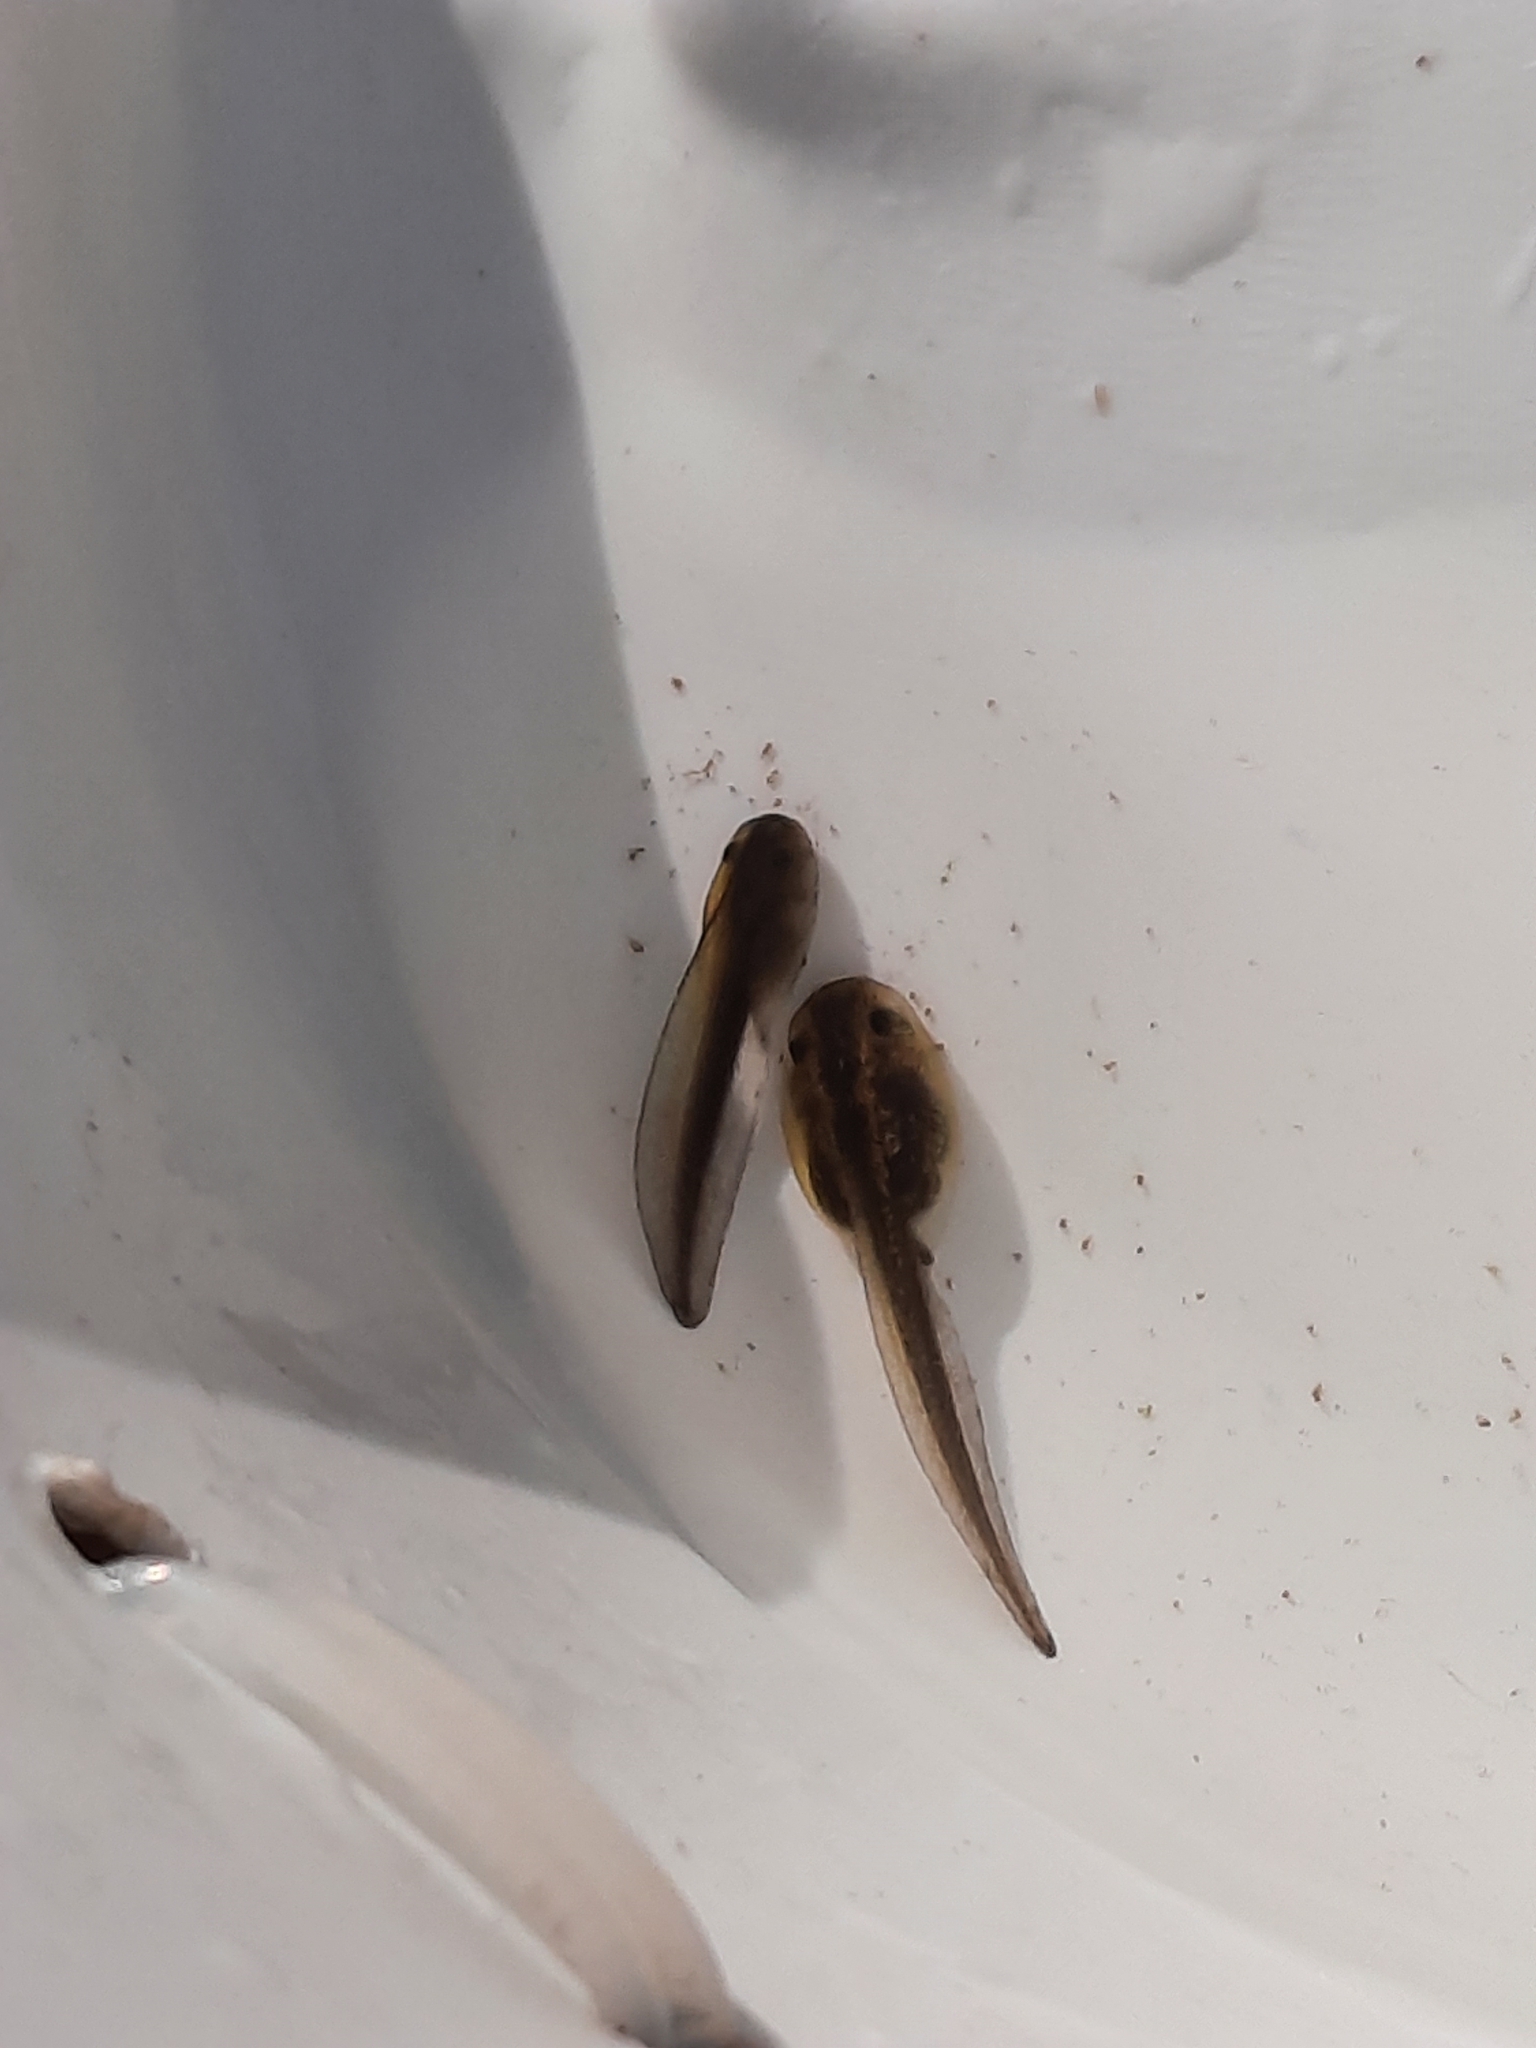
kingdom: Animalia
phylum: Chordata
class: Amphibia
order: Anura
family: Ranidae
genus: Rana
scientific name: Rana aurora
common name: Red-legged frog
